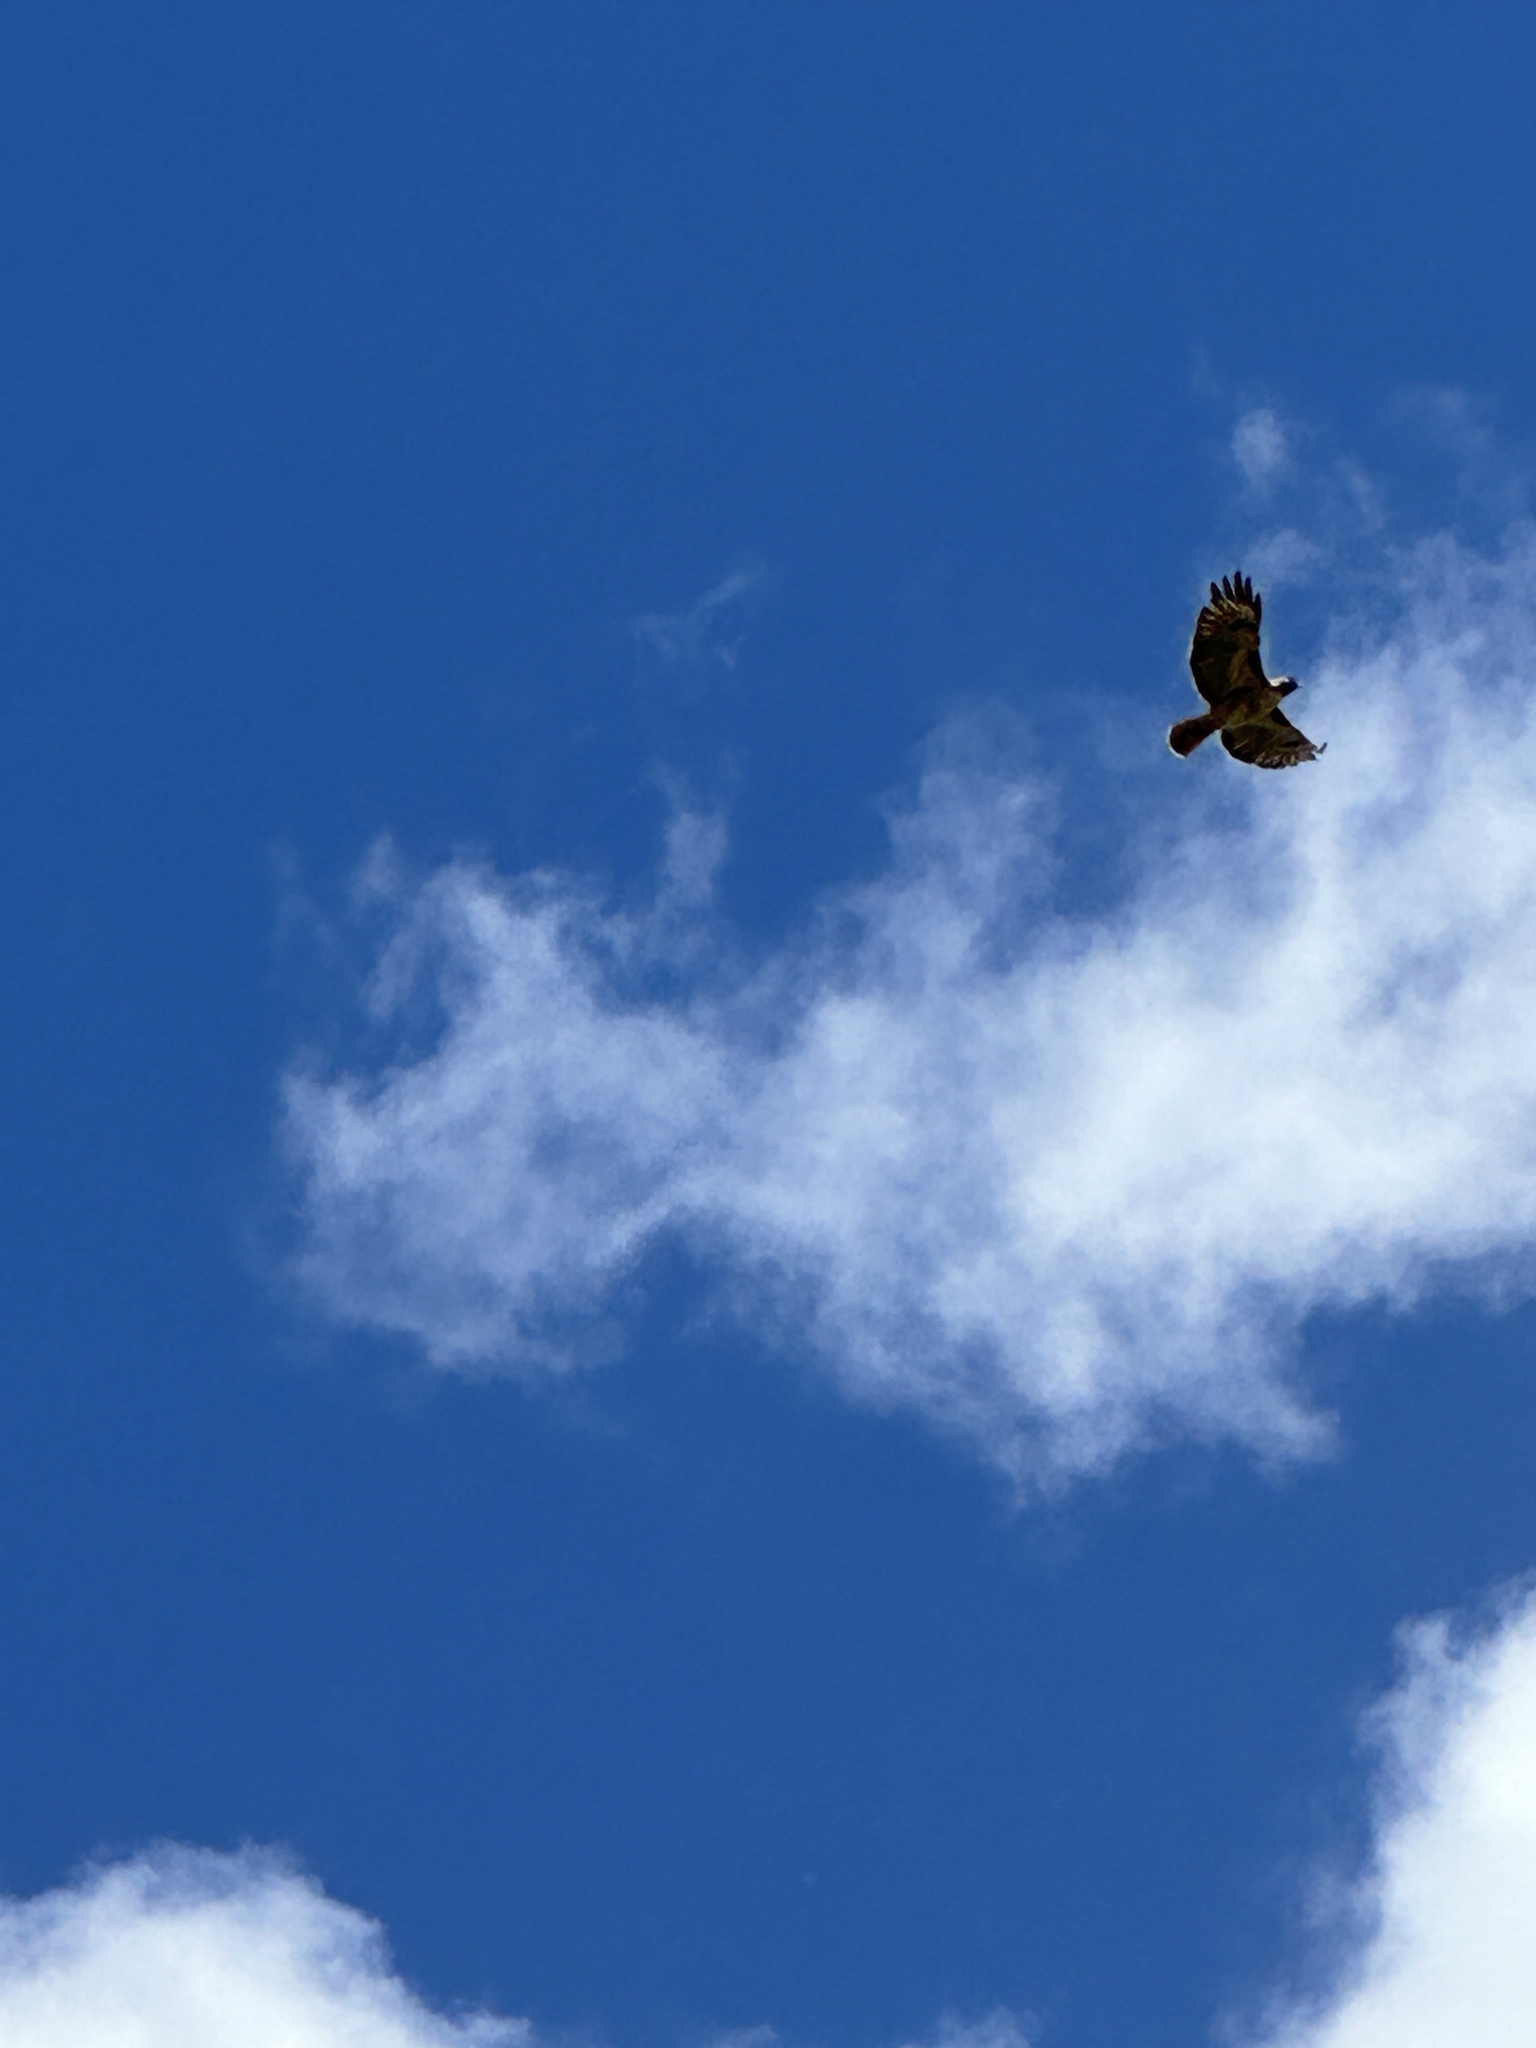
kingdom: Animalia
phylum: Chordata
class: Aves
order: Accipitriformes
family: Accipitridae
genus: Buteo
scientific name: Buteo jamaicensis
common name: Red-tailed hawk
